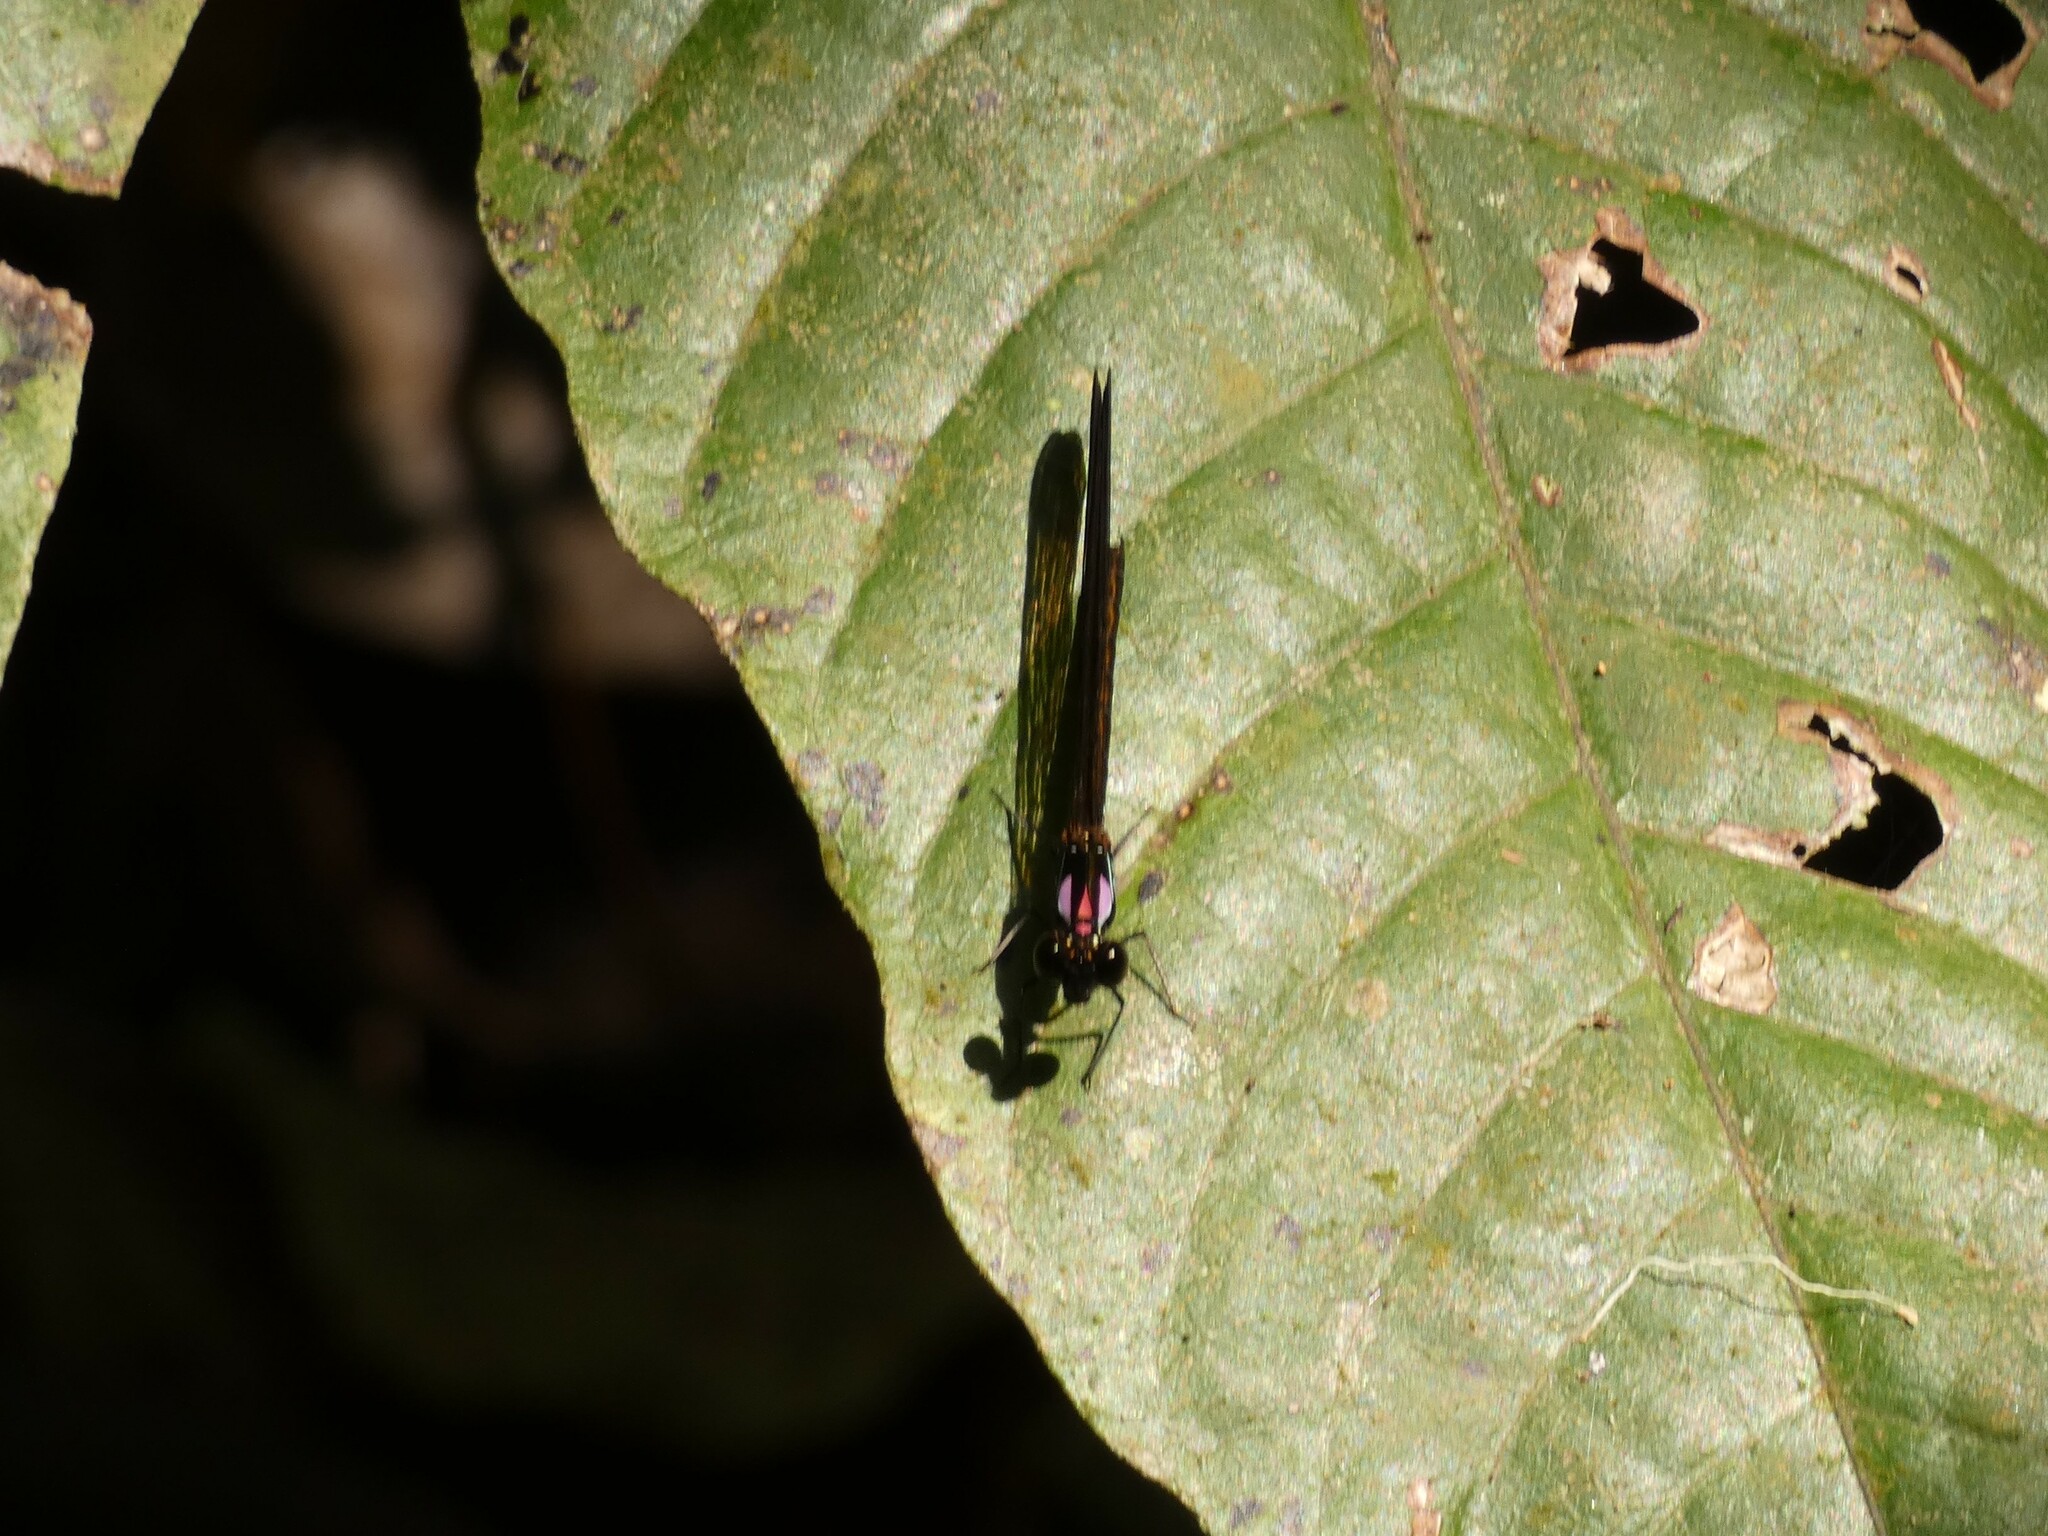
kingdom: Animalia
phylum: Arthropoda
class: Insecta
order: Odonata
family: Chlorocyphidae
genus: Heliocypha
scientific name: Heliocypha biforata
